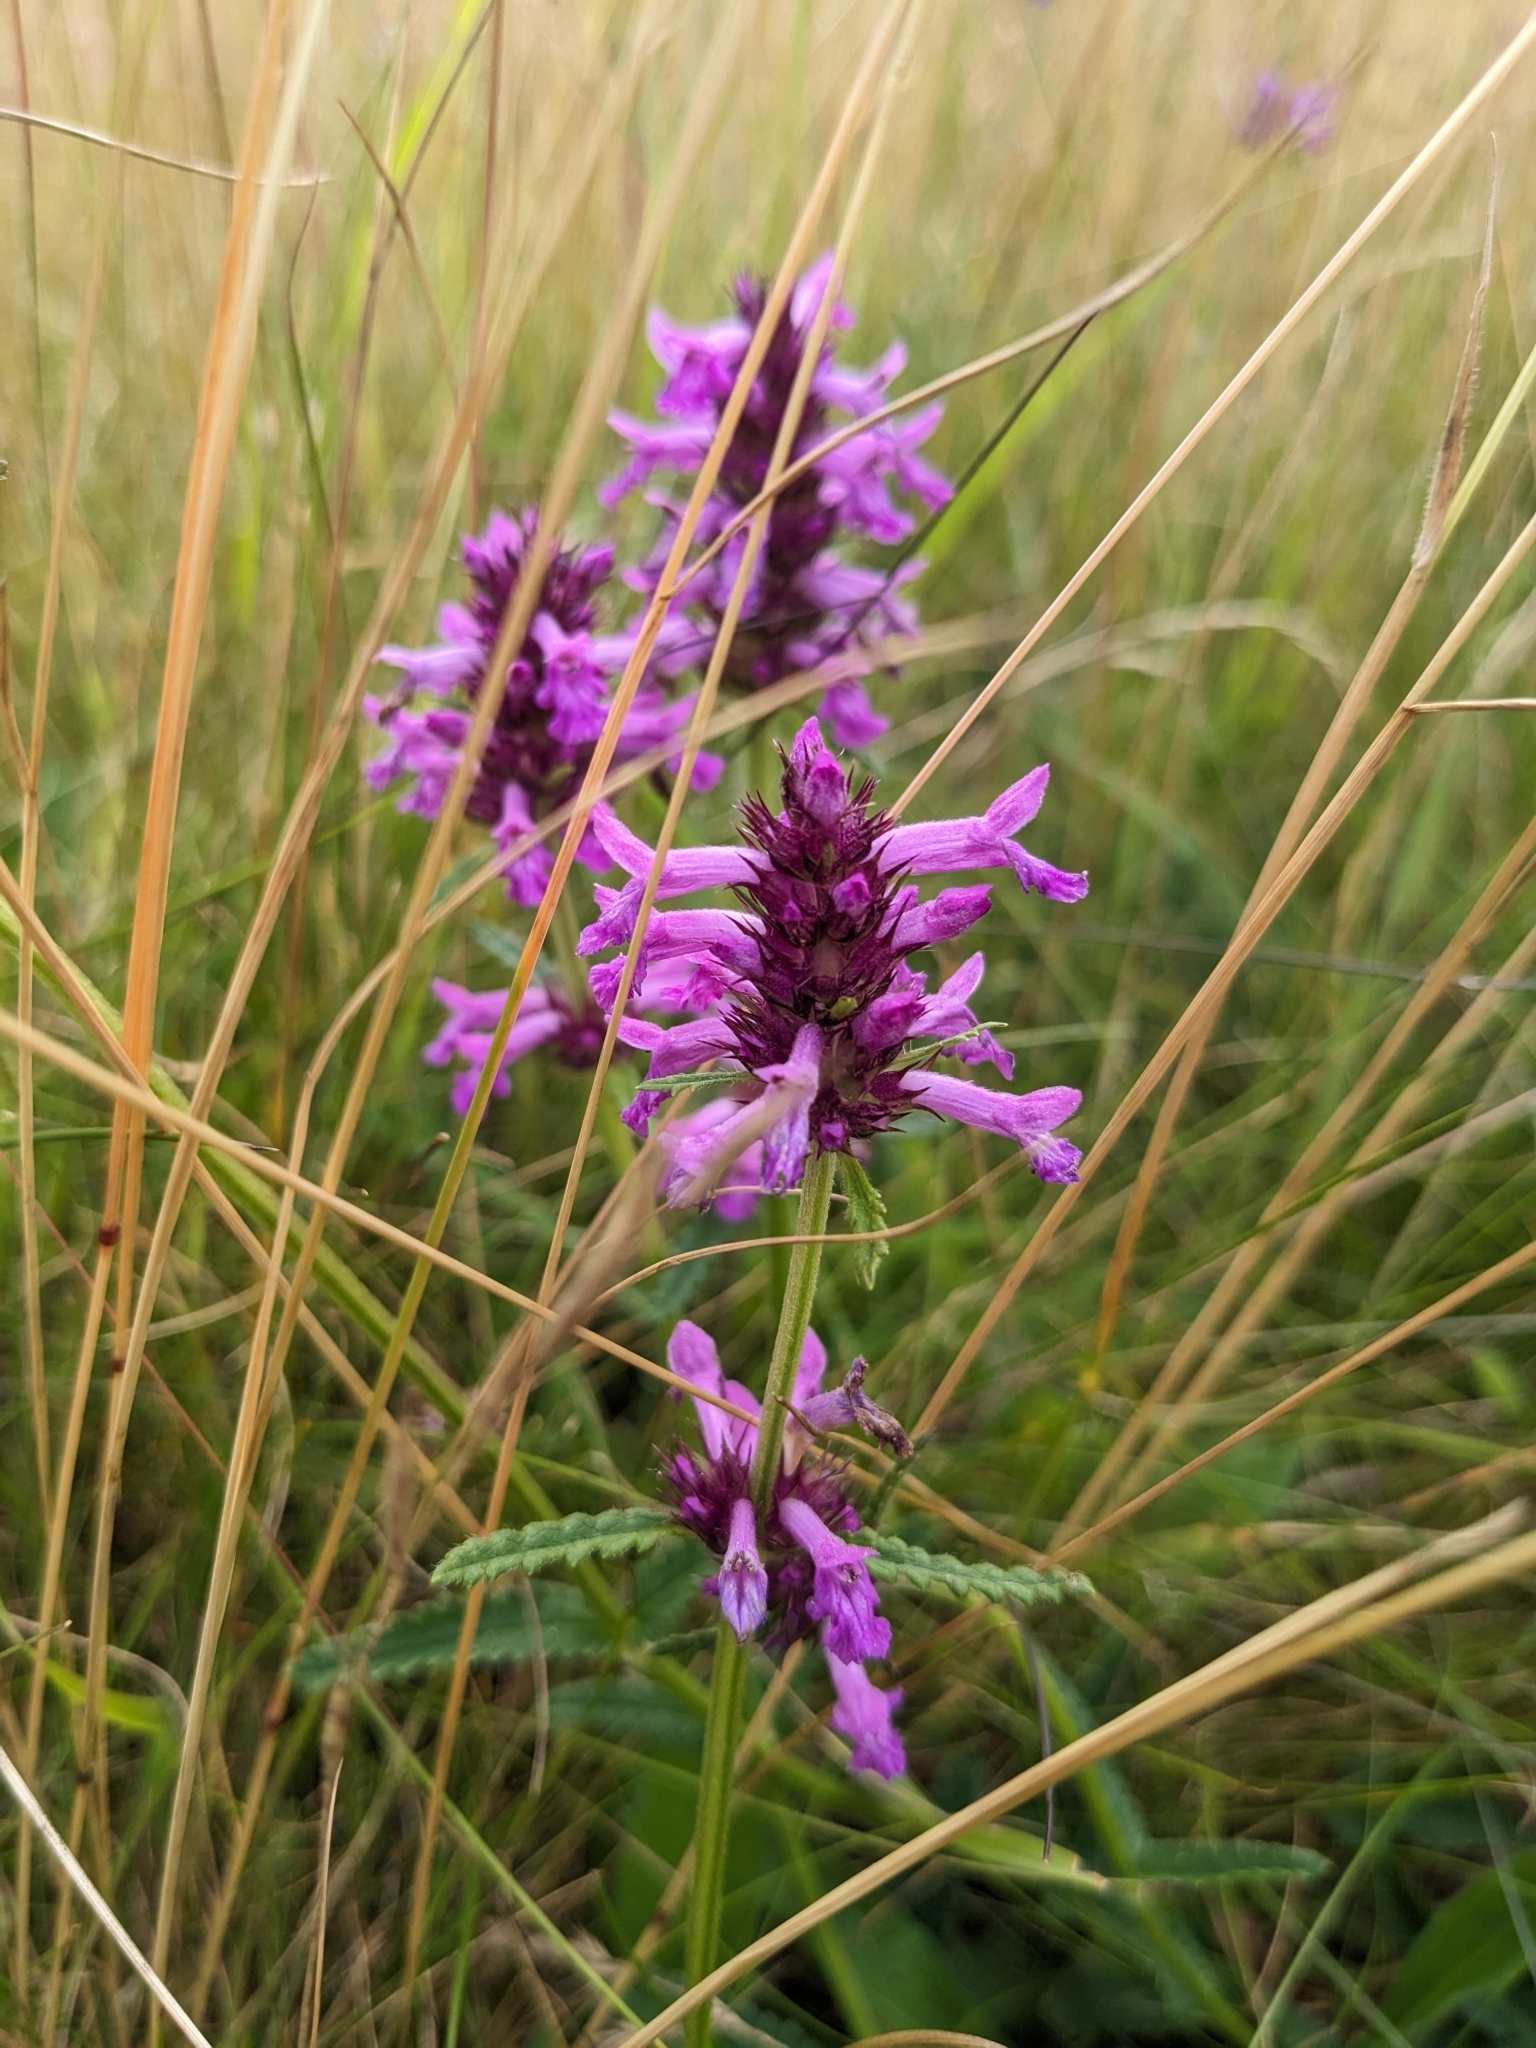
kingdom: Plantae
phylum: Tracheophyta
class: Magnoliopsida
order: Lamiales
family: Lamiaceae
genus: Betonica
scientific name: Betonica officinalis
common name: Bishop's-wort
